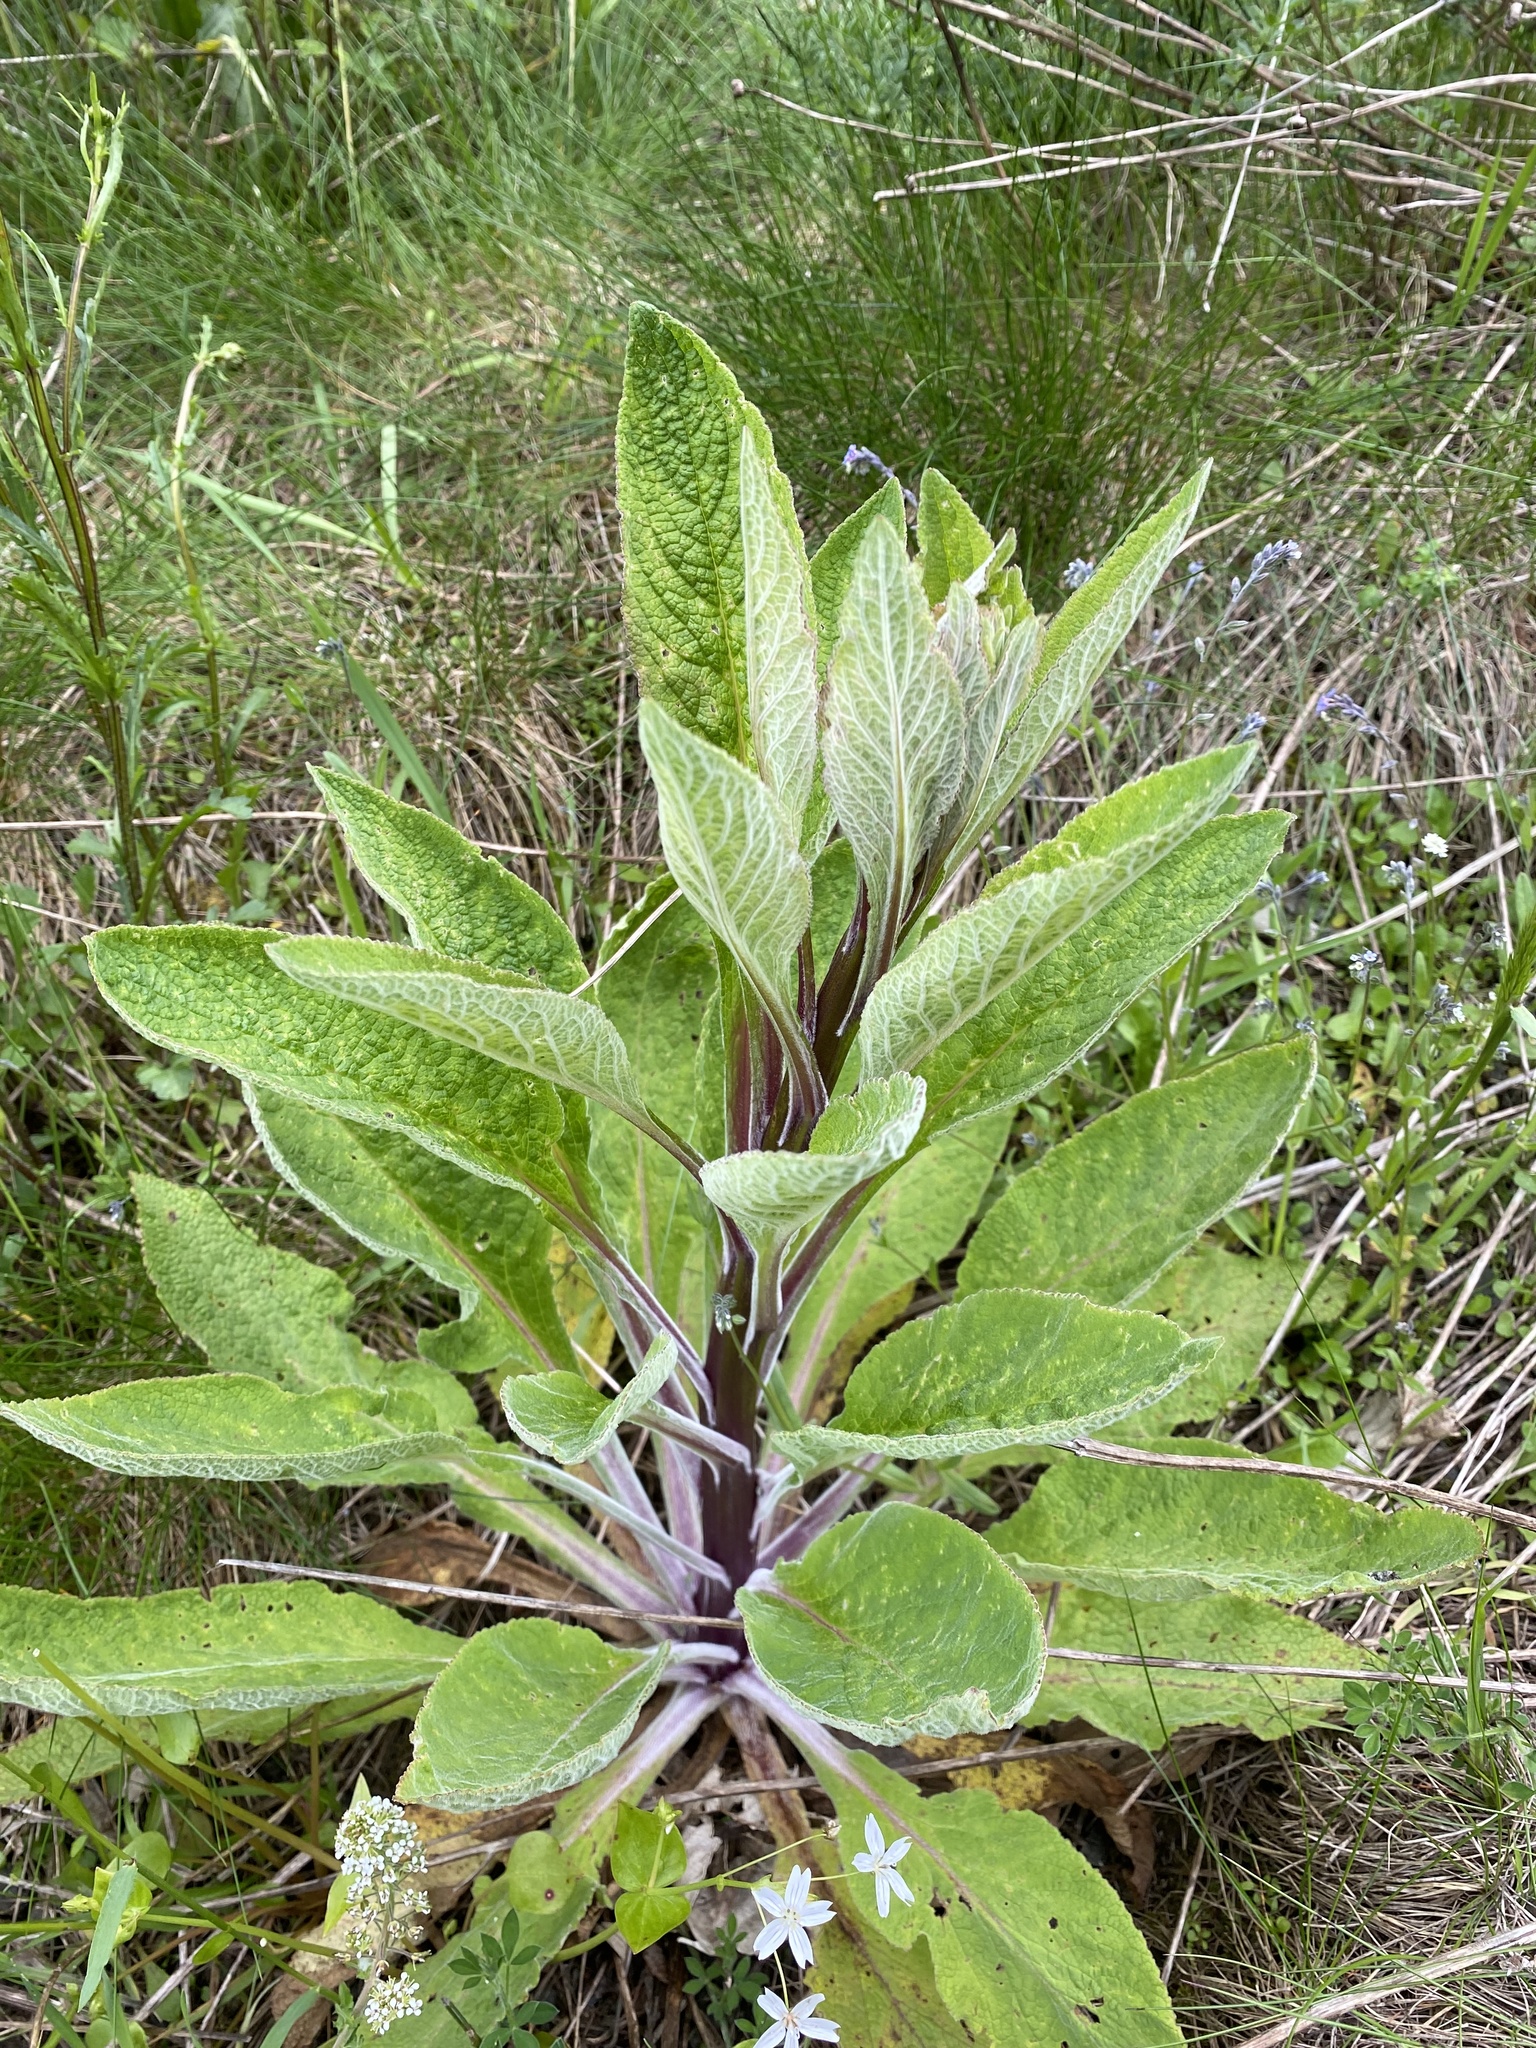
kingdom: Plantae
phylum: Tracheophyta
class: Magnoliopsida
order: Lamiales
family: Plantaginaceae
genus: Digitalis
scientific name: Digitalis purpurea
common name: Foxglove
